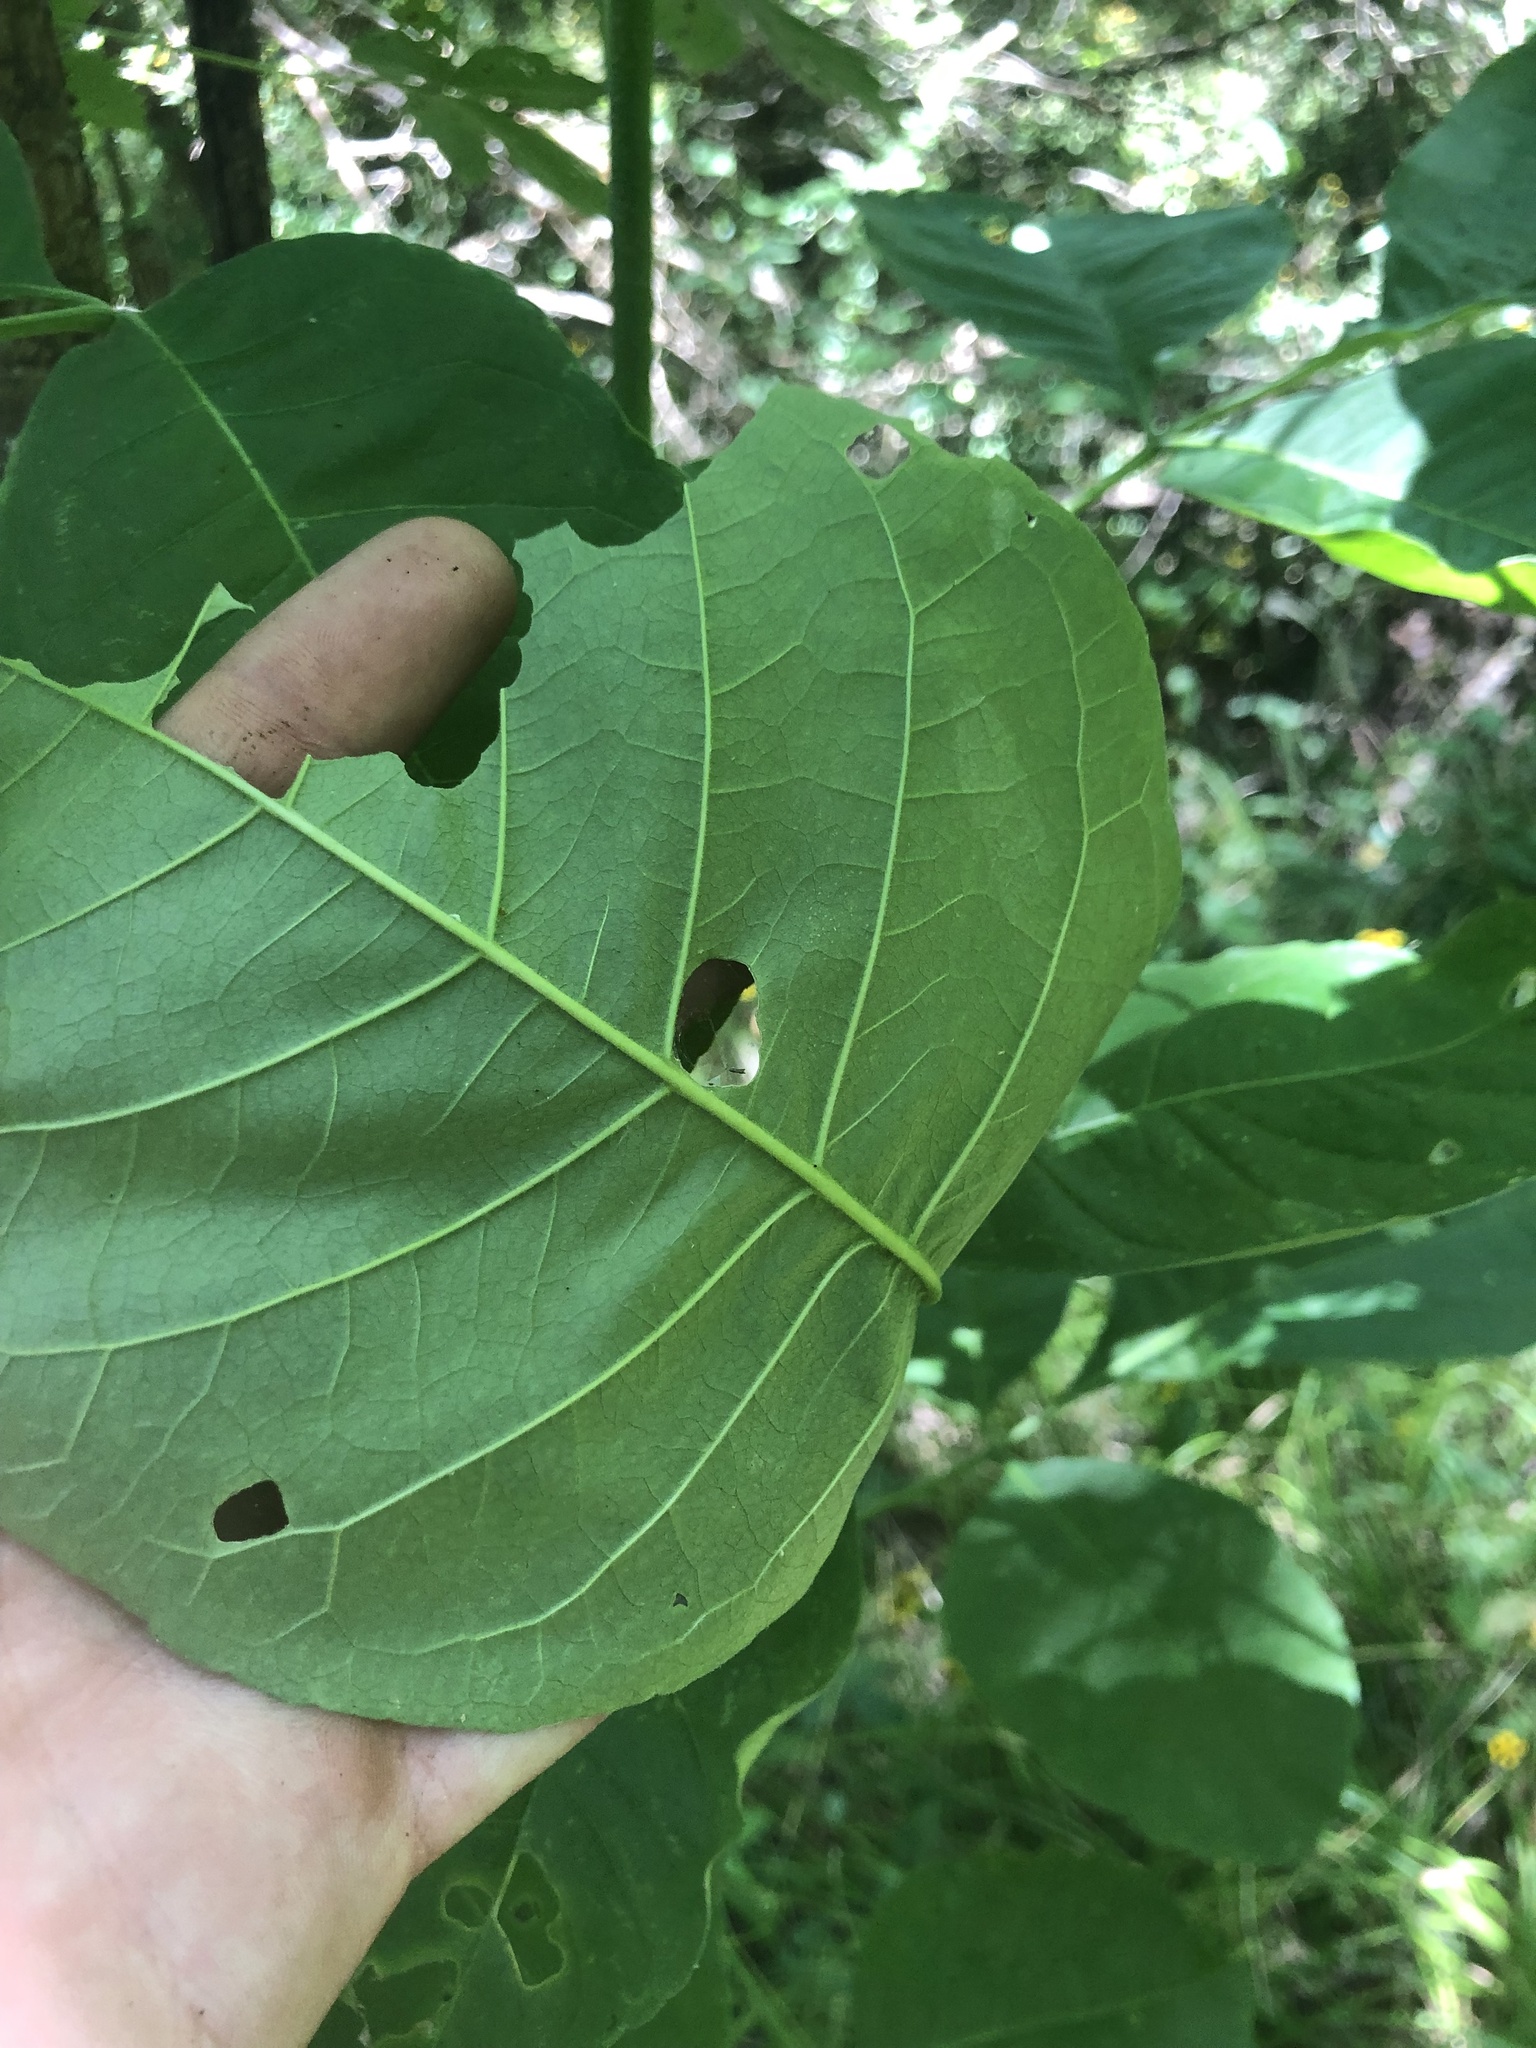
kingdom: Plantae
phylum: Tracheophyta
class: Magnoliopsida
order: Sapindales
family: Rutaceae
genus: Ptelea
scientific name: Ptelea trifoliata
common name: Common hop-tree
